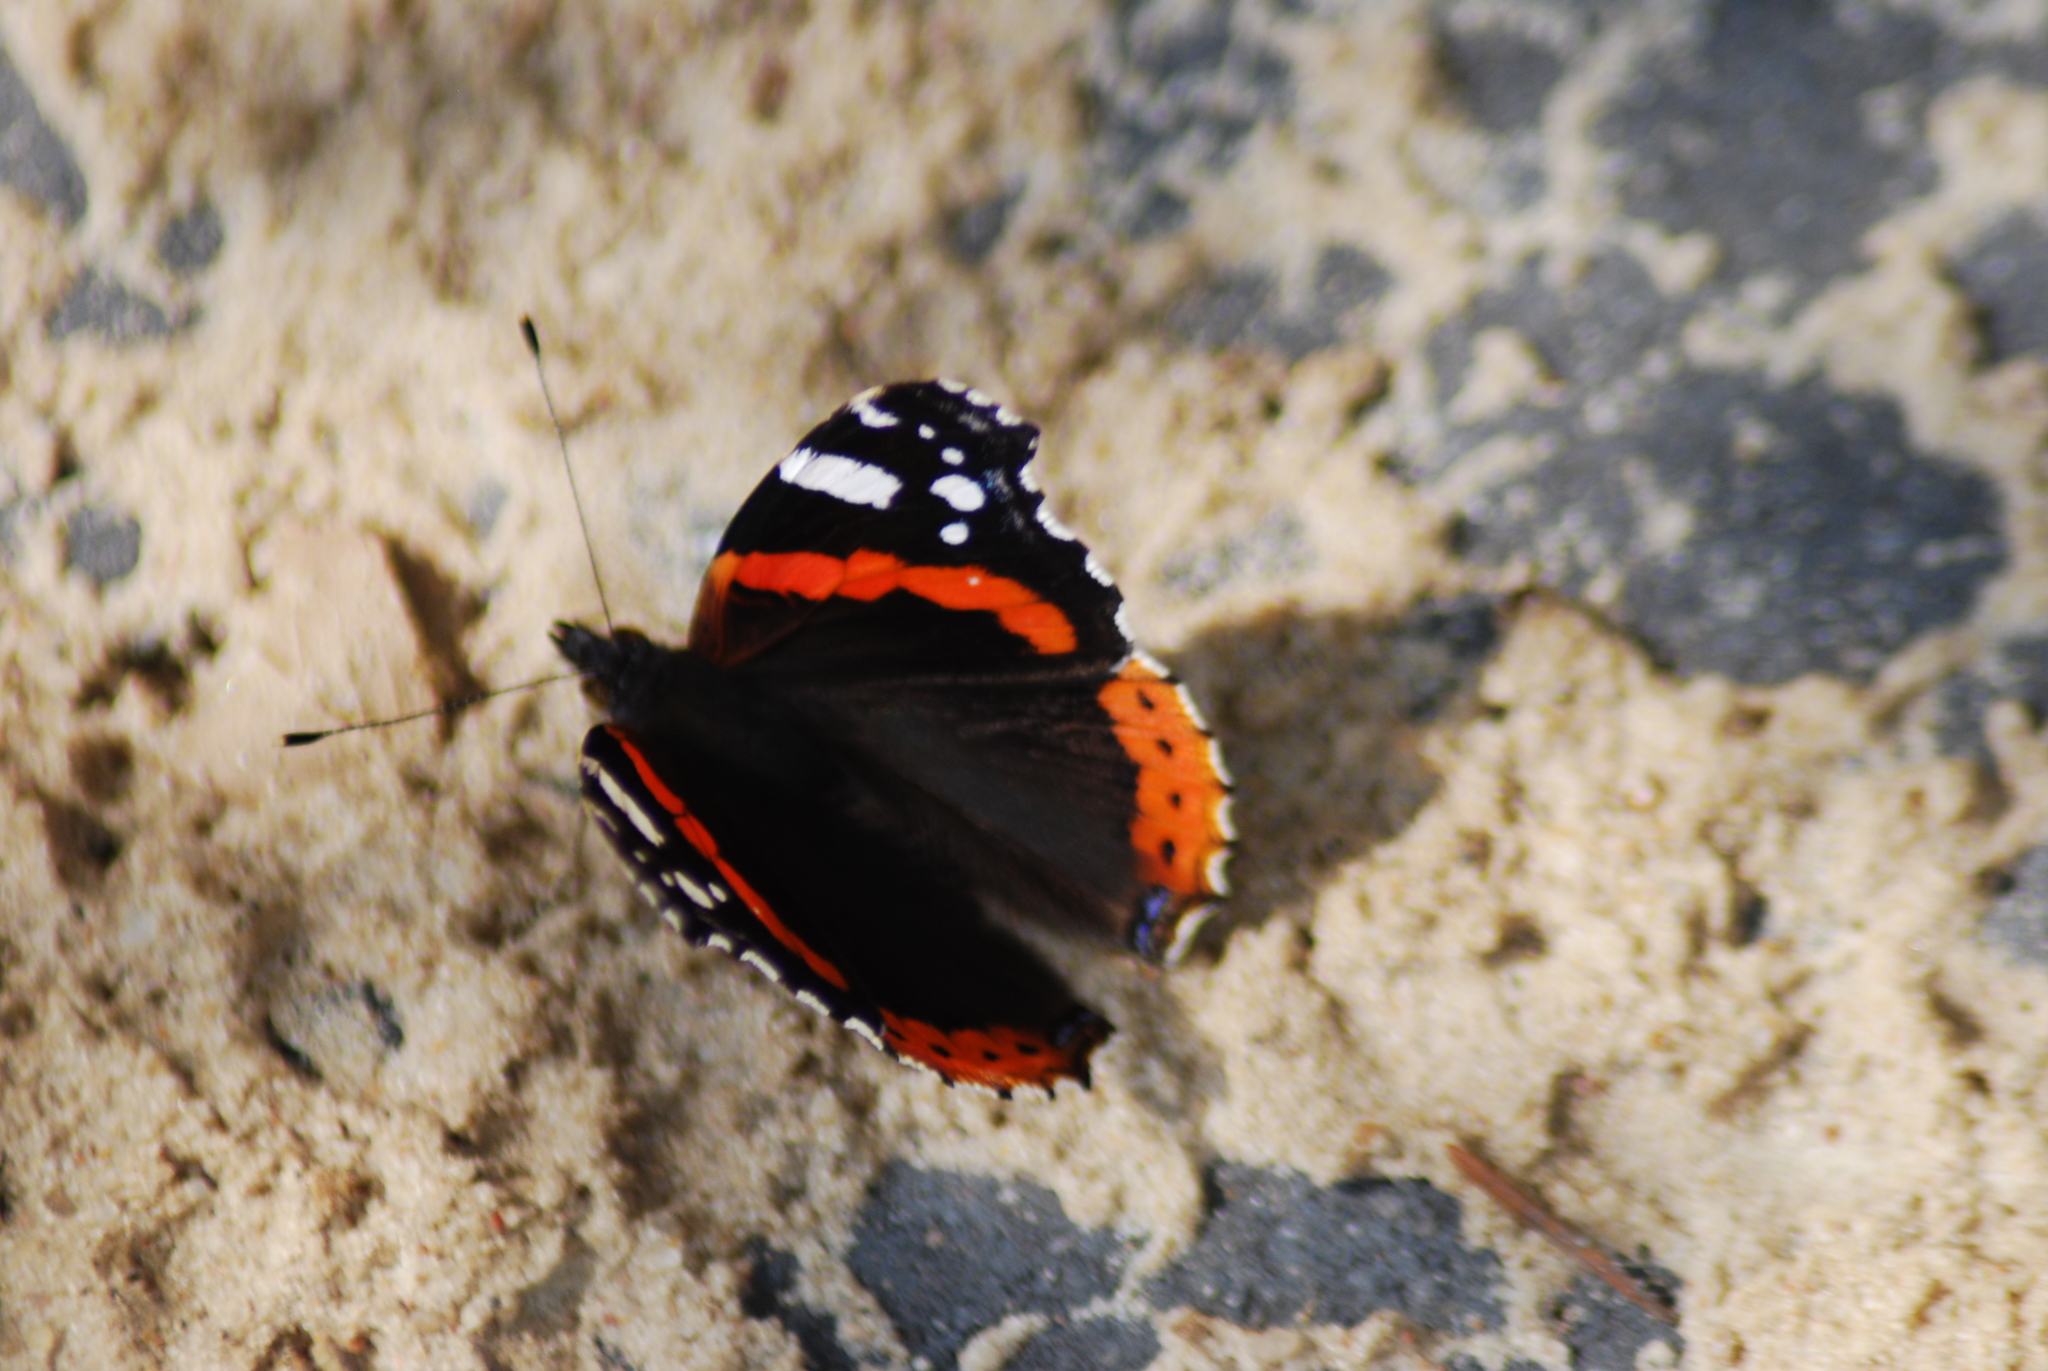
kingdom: Animalia
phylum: Arthropoda
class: Insecta
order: Lepidoptera
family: Nymphalidae
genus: Vanessa
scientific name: Vanessa atalanta
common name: Red admiral
